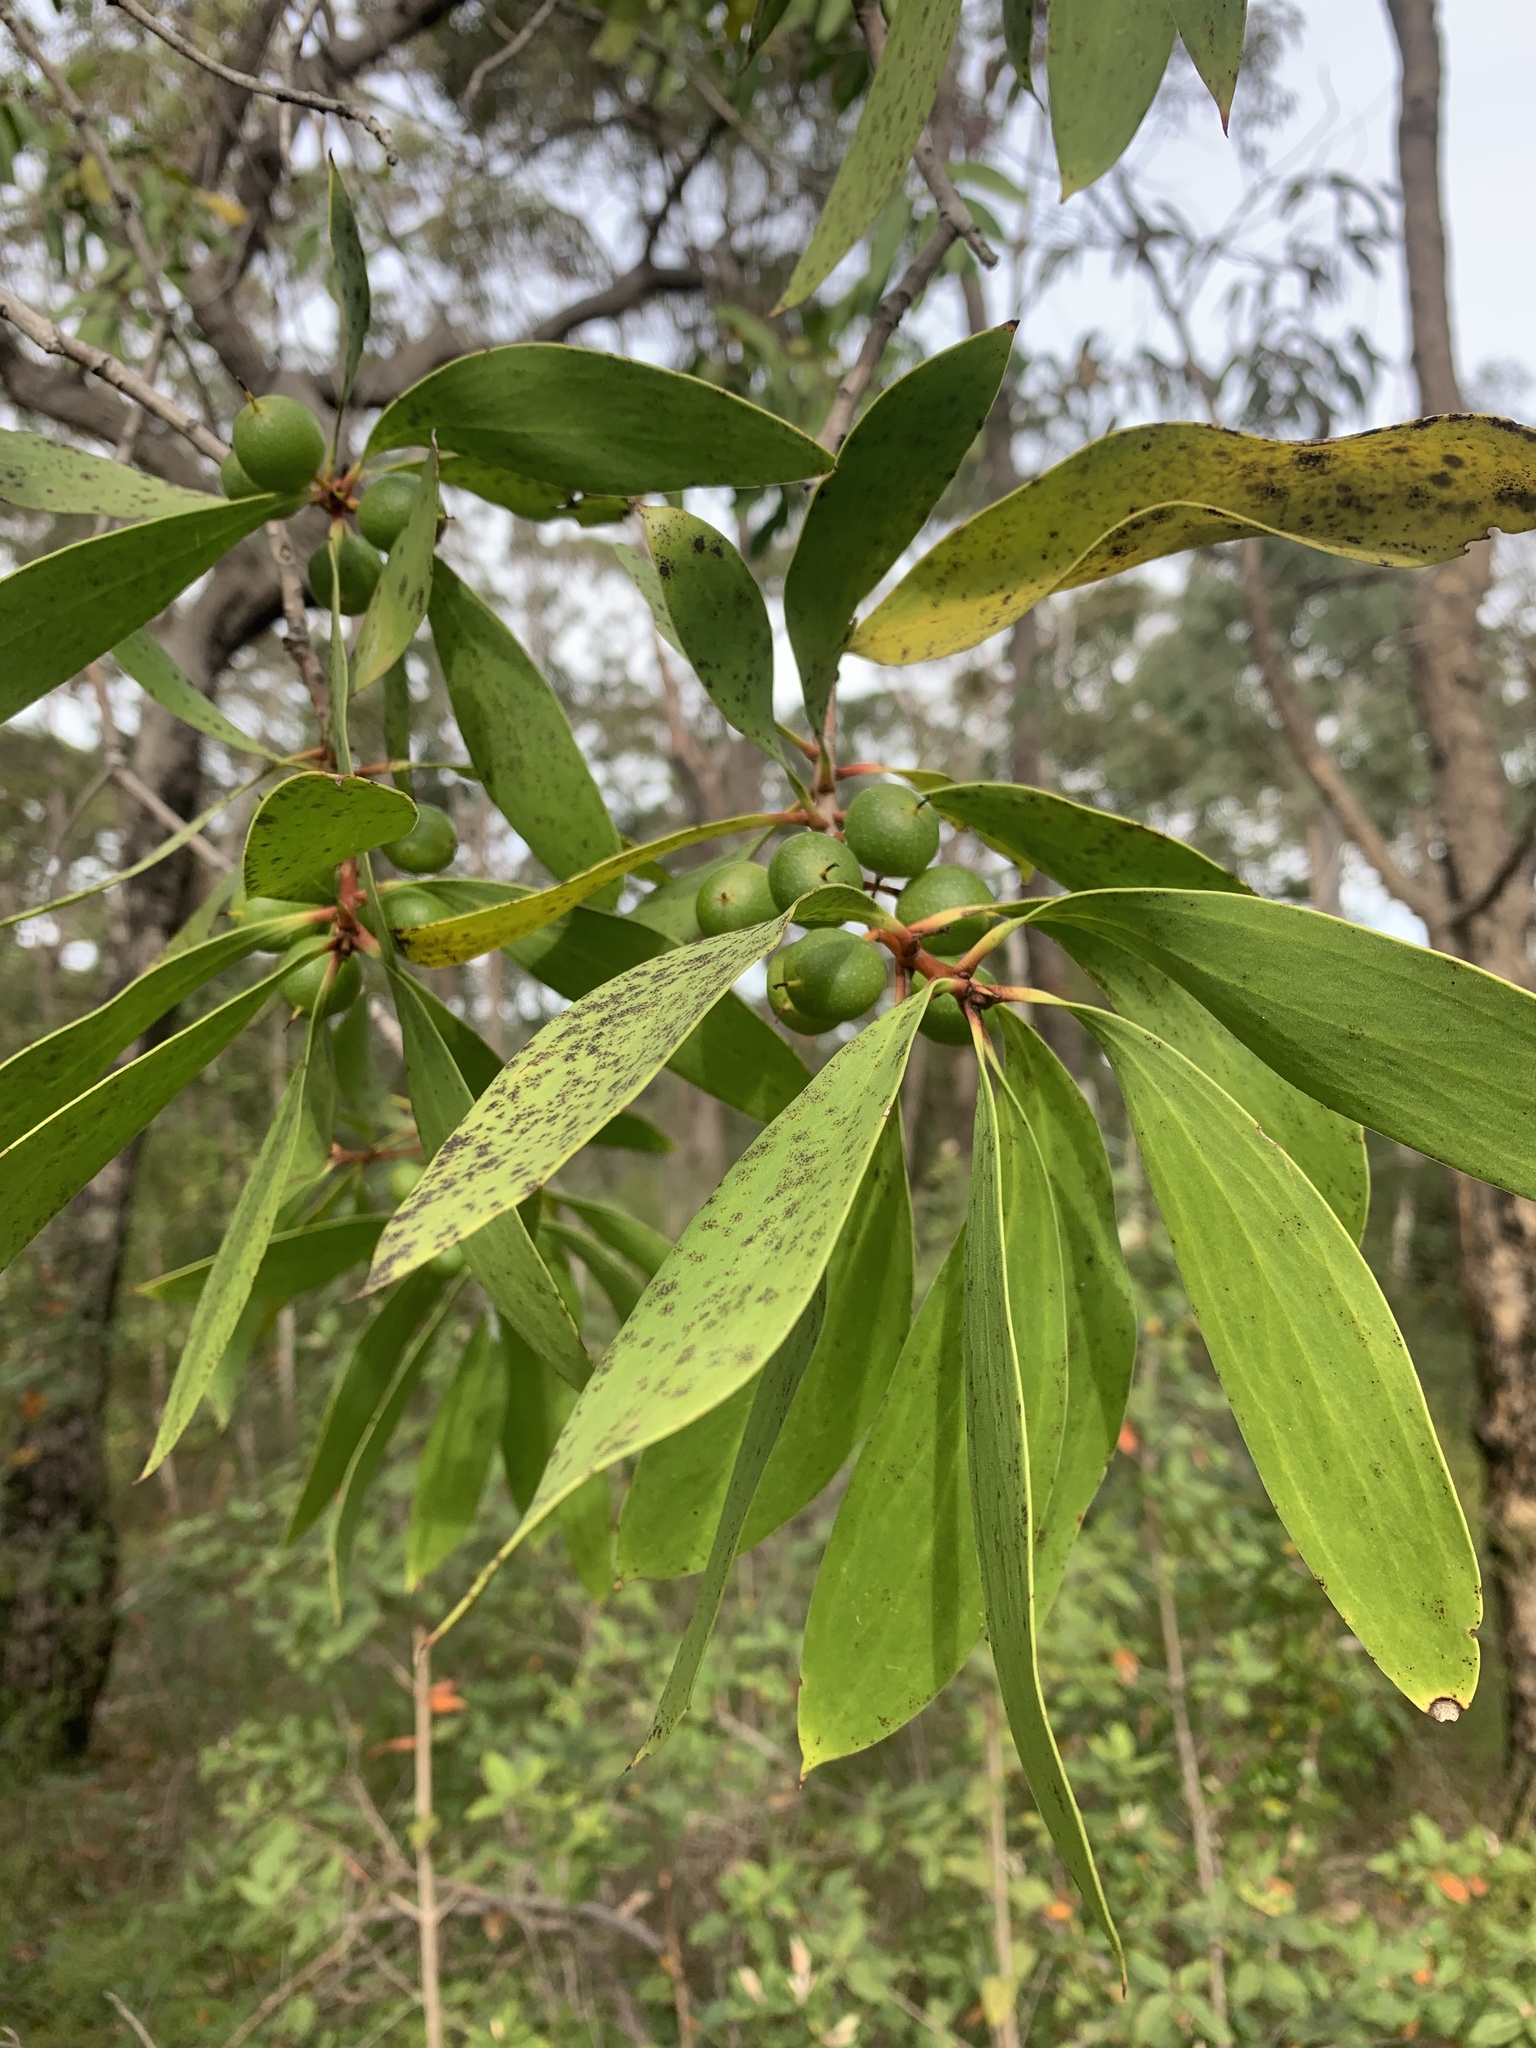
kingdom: Plantae
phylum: Tracheophyta
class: Magnoliopsida
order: Proteales
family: Proteaceae
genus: Persoonia
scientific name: Persoonia levis
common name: Smooth geebung
